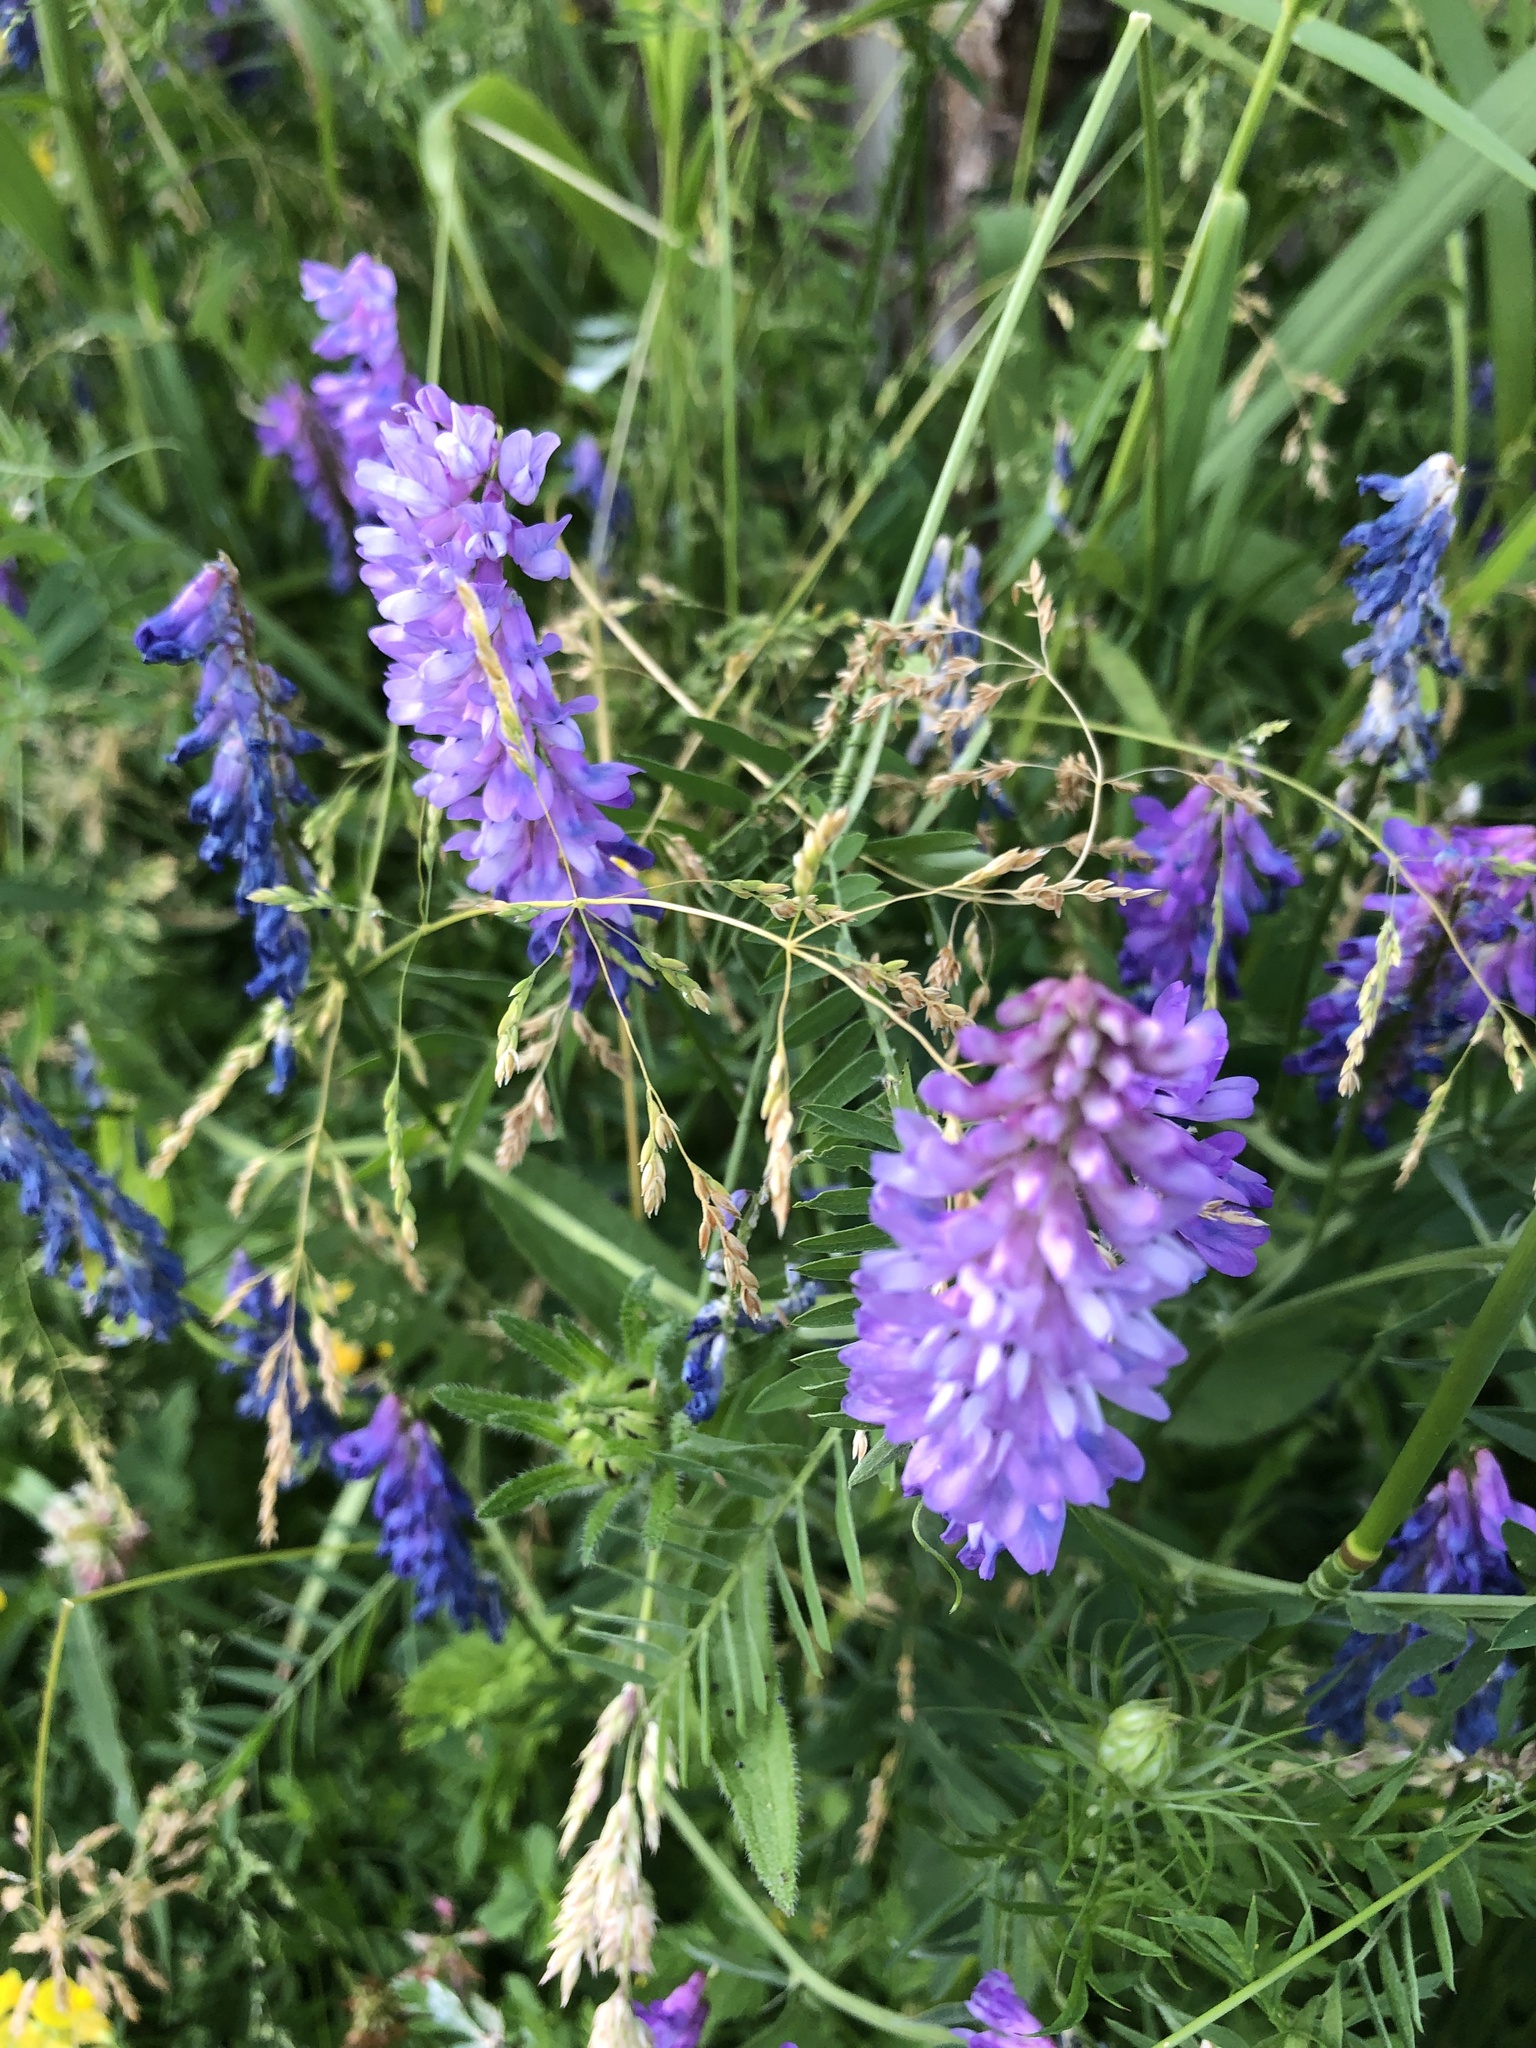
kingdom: Plantae
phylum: Tracheophyta
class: Magnoliopsida
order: Fabales
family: Fabaceae
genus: Vicia
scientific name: Vicia cracca
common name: Bird vetch
